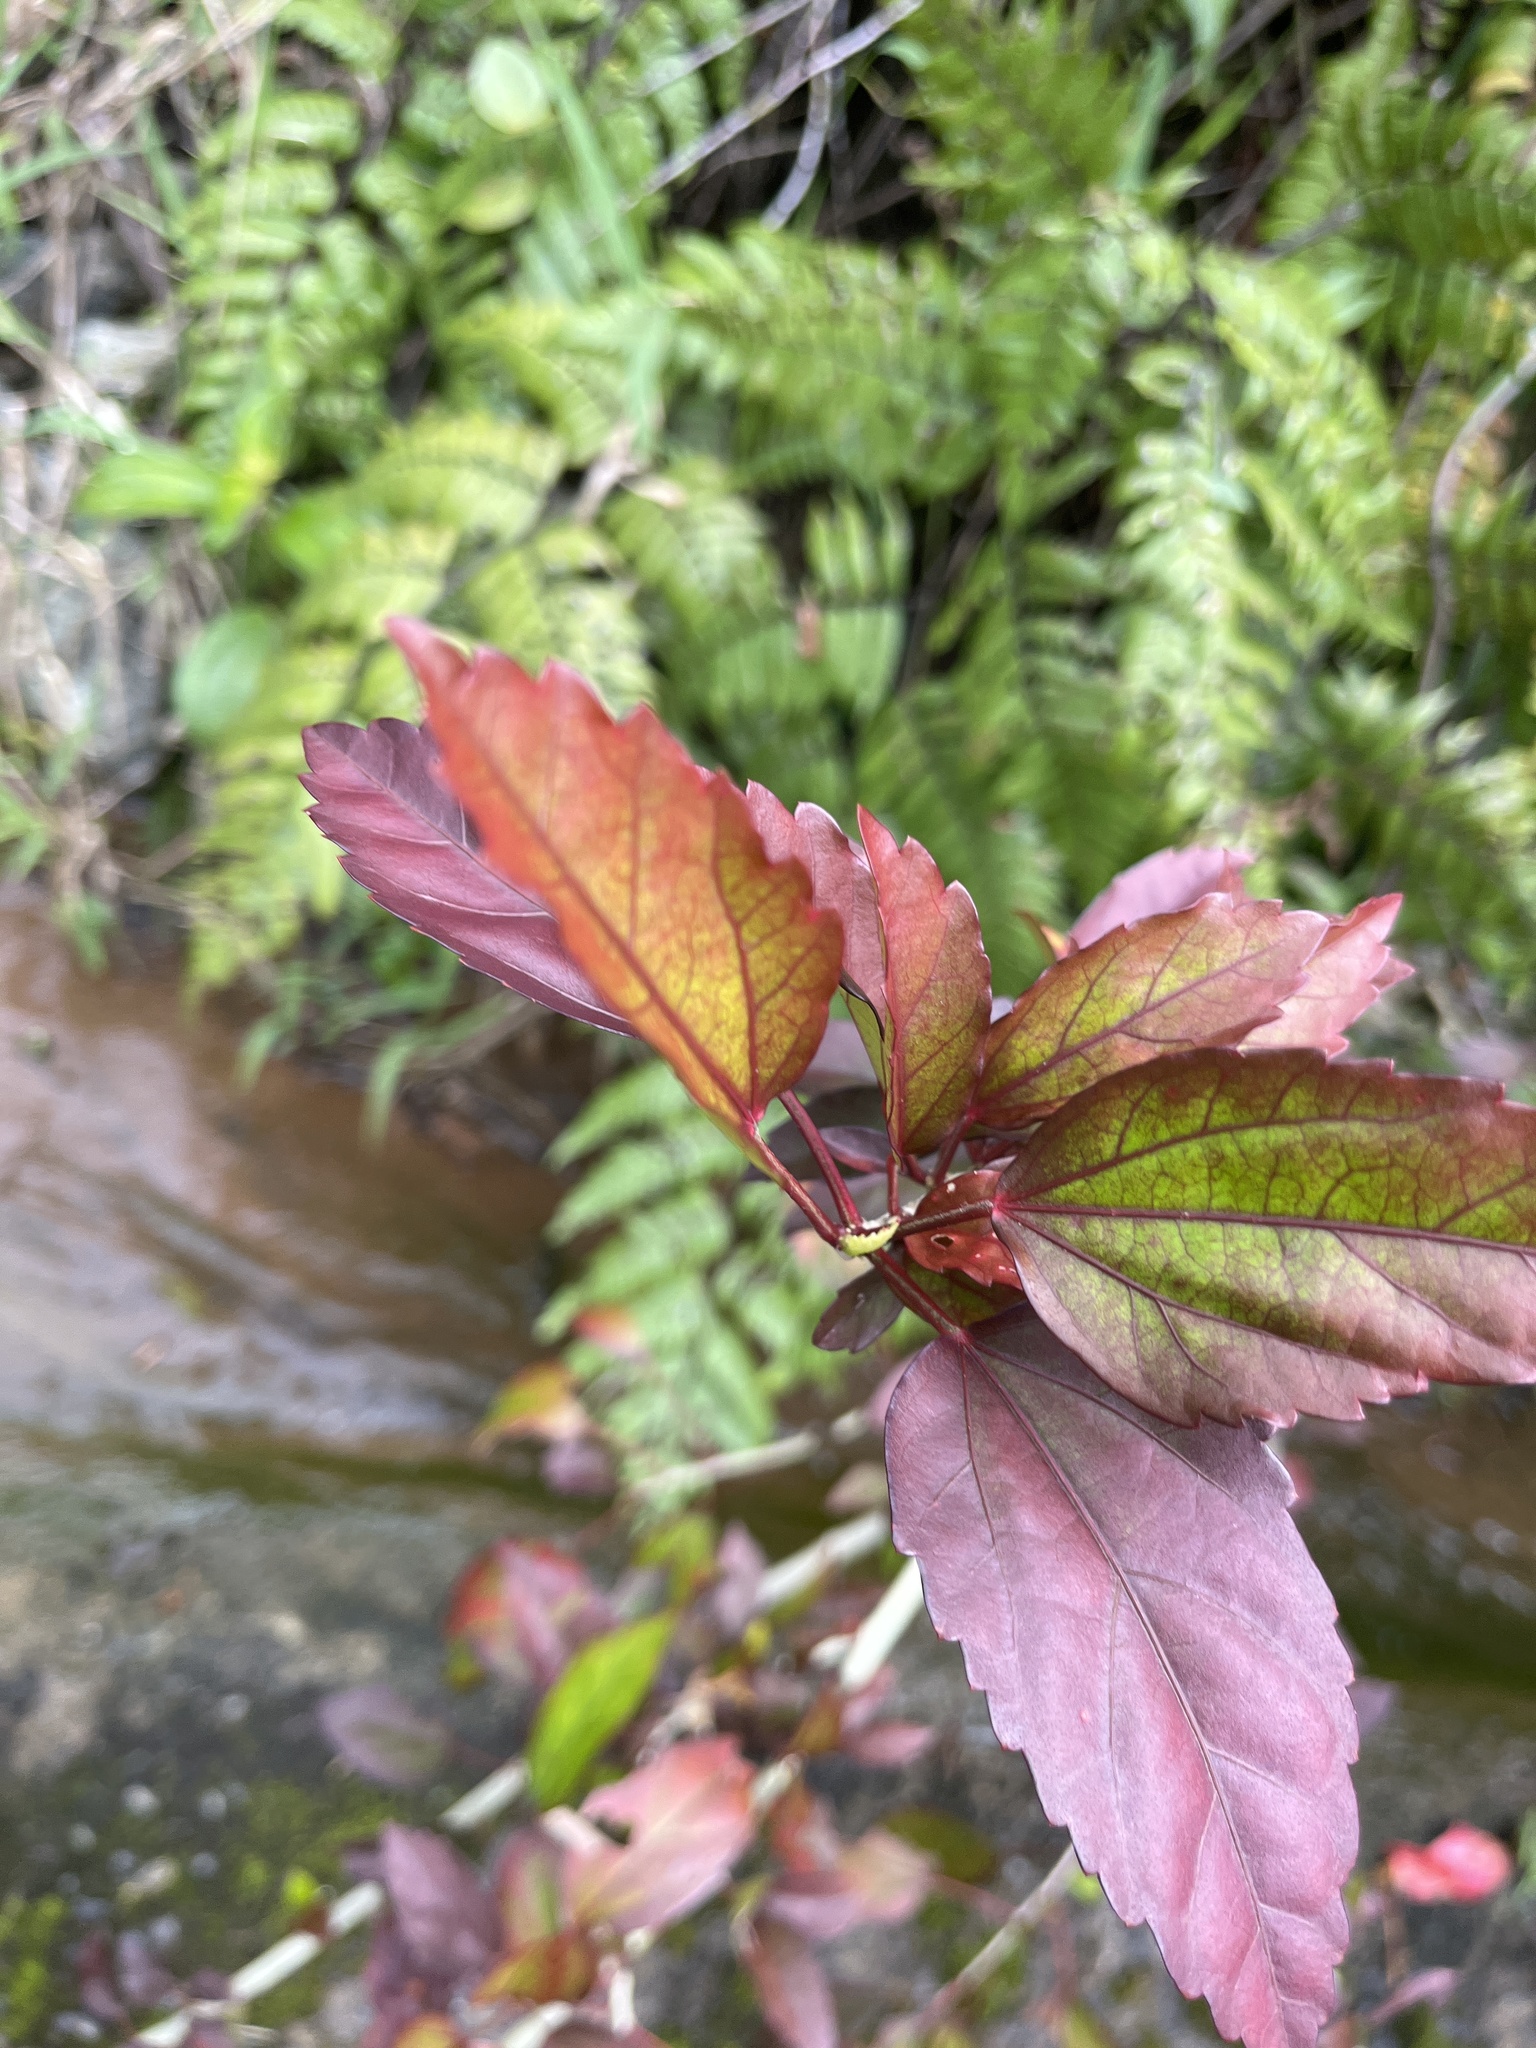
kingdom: Plantae
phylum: Tracheophyta
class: Magnoliopsida
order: Malvales
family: Malvaceae
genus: Hibiscus
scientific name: Hibiscus archeri
